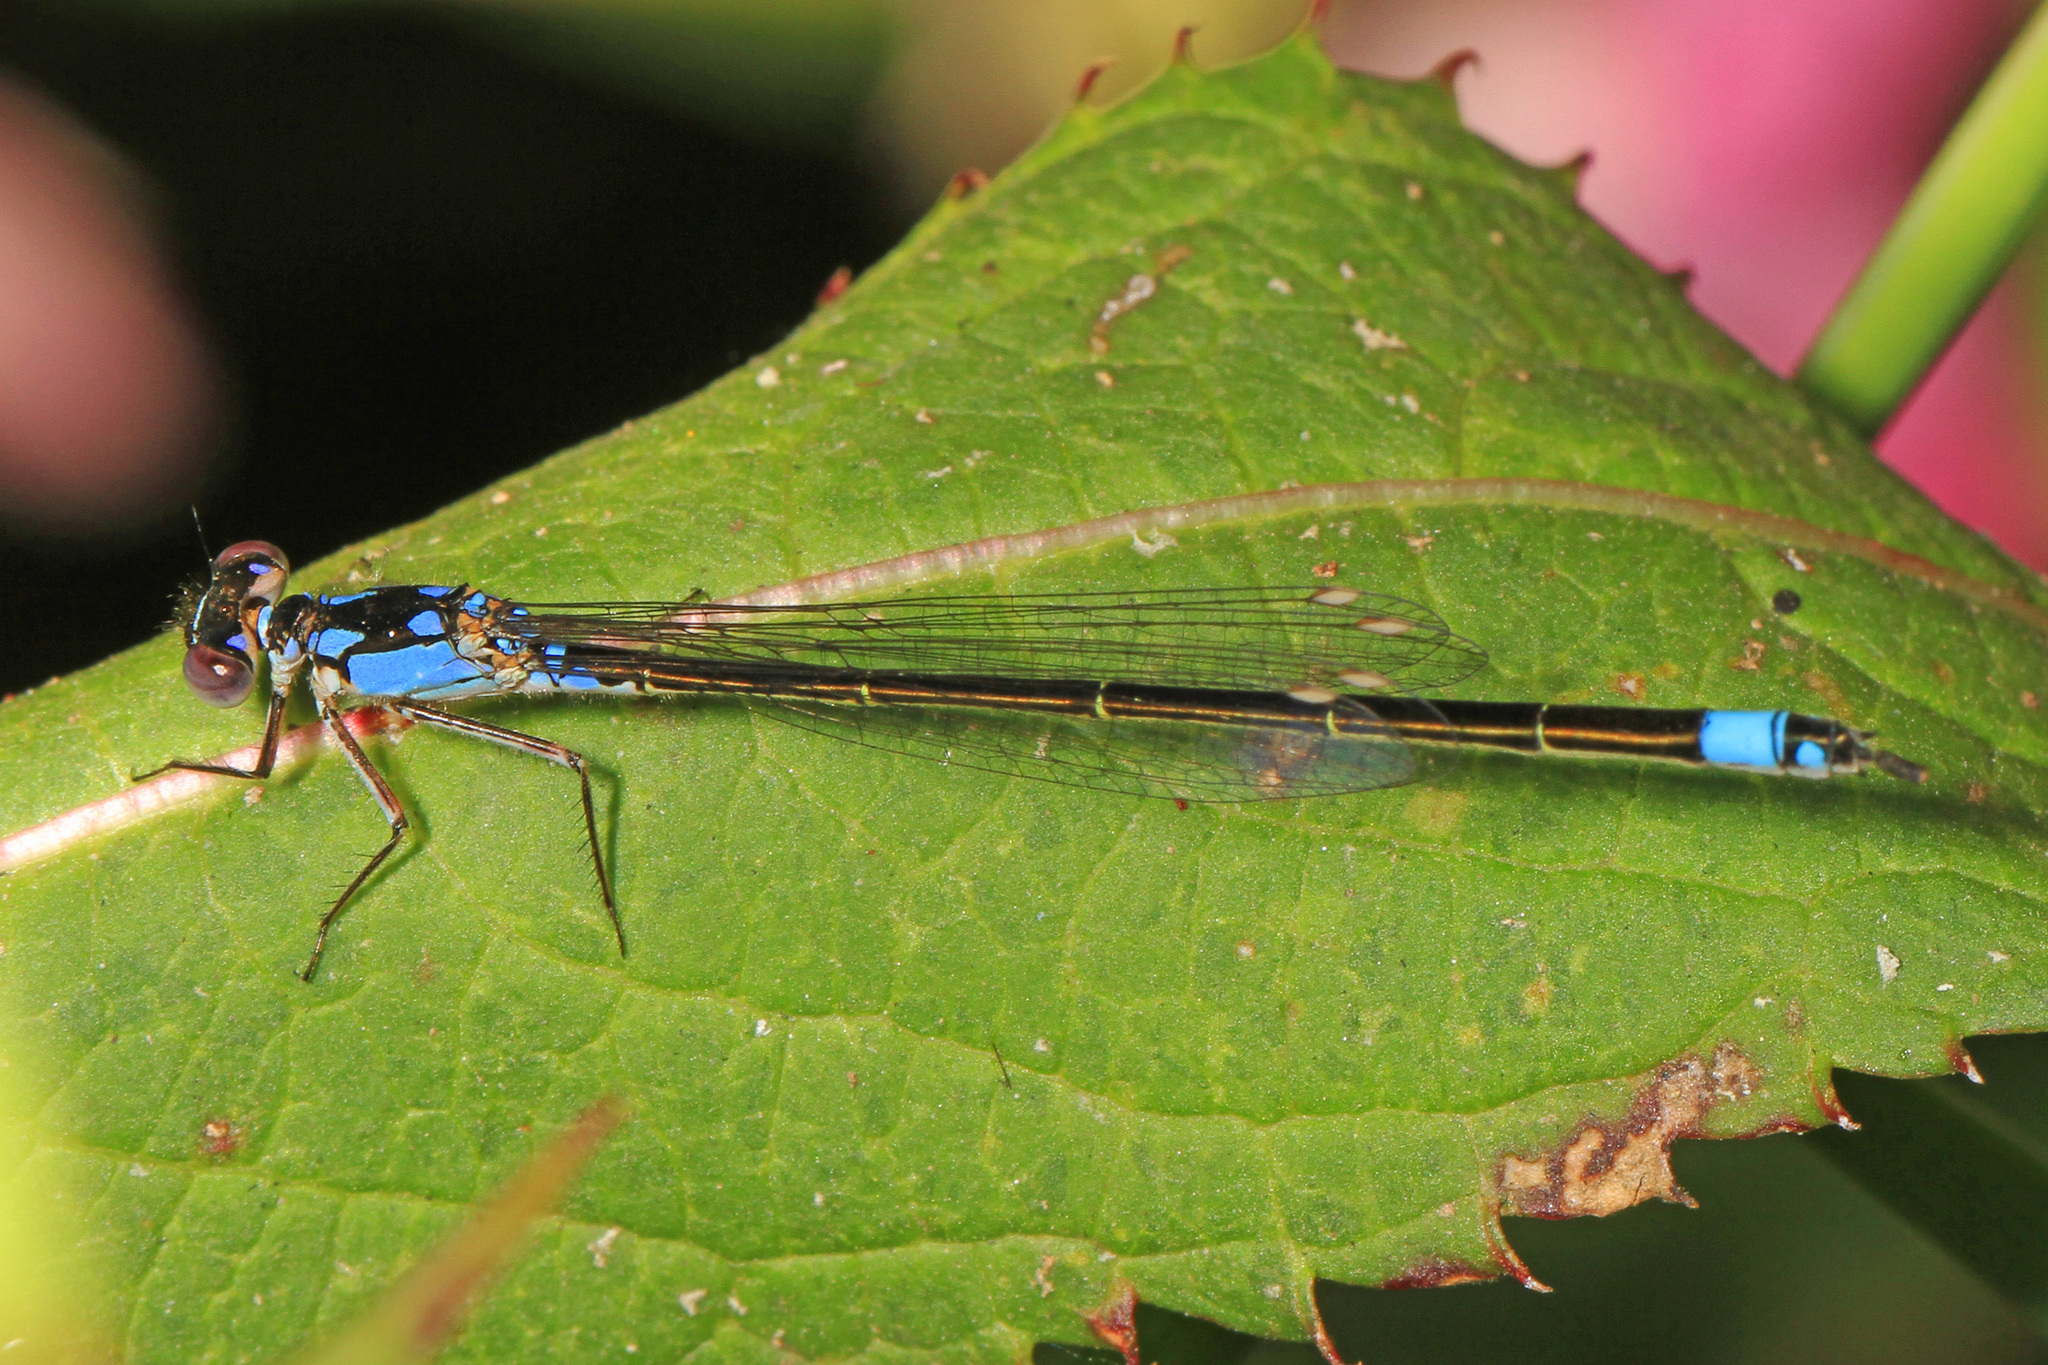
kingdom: Animalia
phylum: Arthropoda
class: Insecta
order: Odonata
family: Coenagrionidae
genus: Ischnura
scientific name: Ischnura cervula
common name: Pacific forktail
